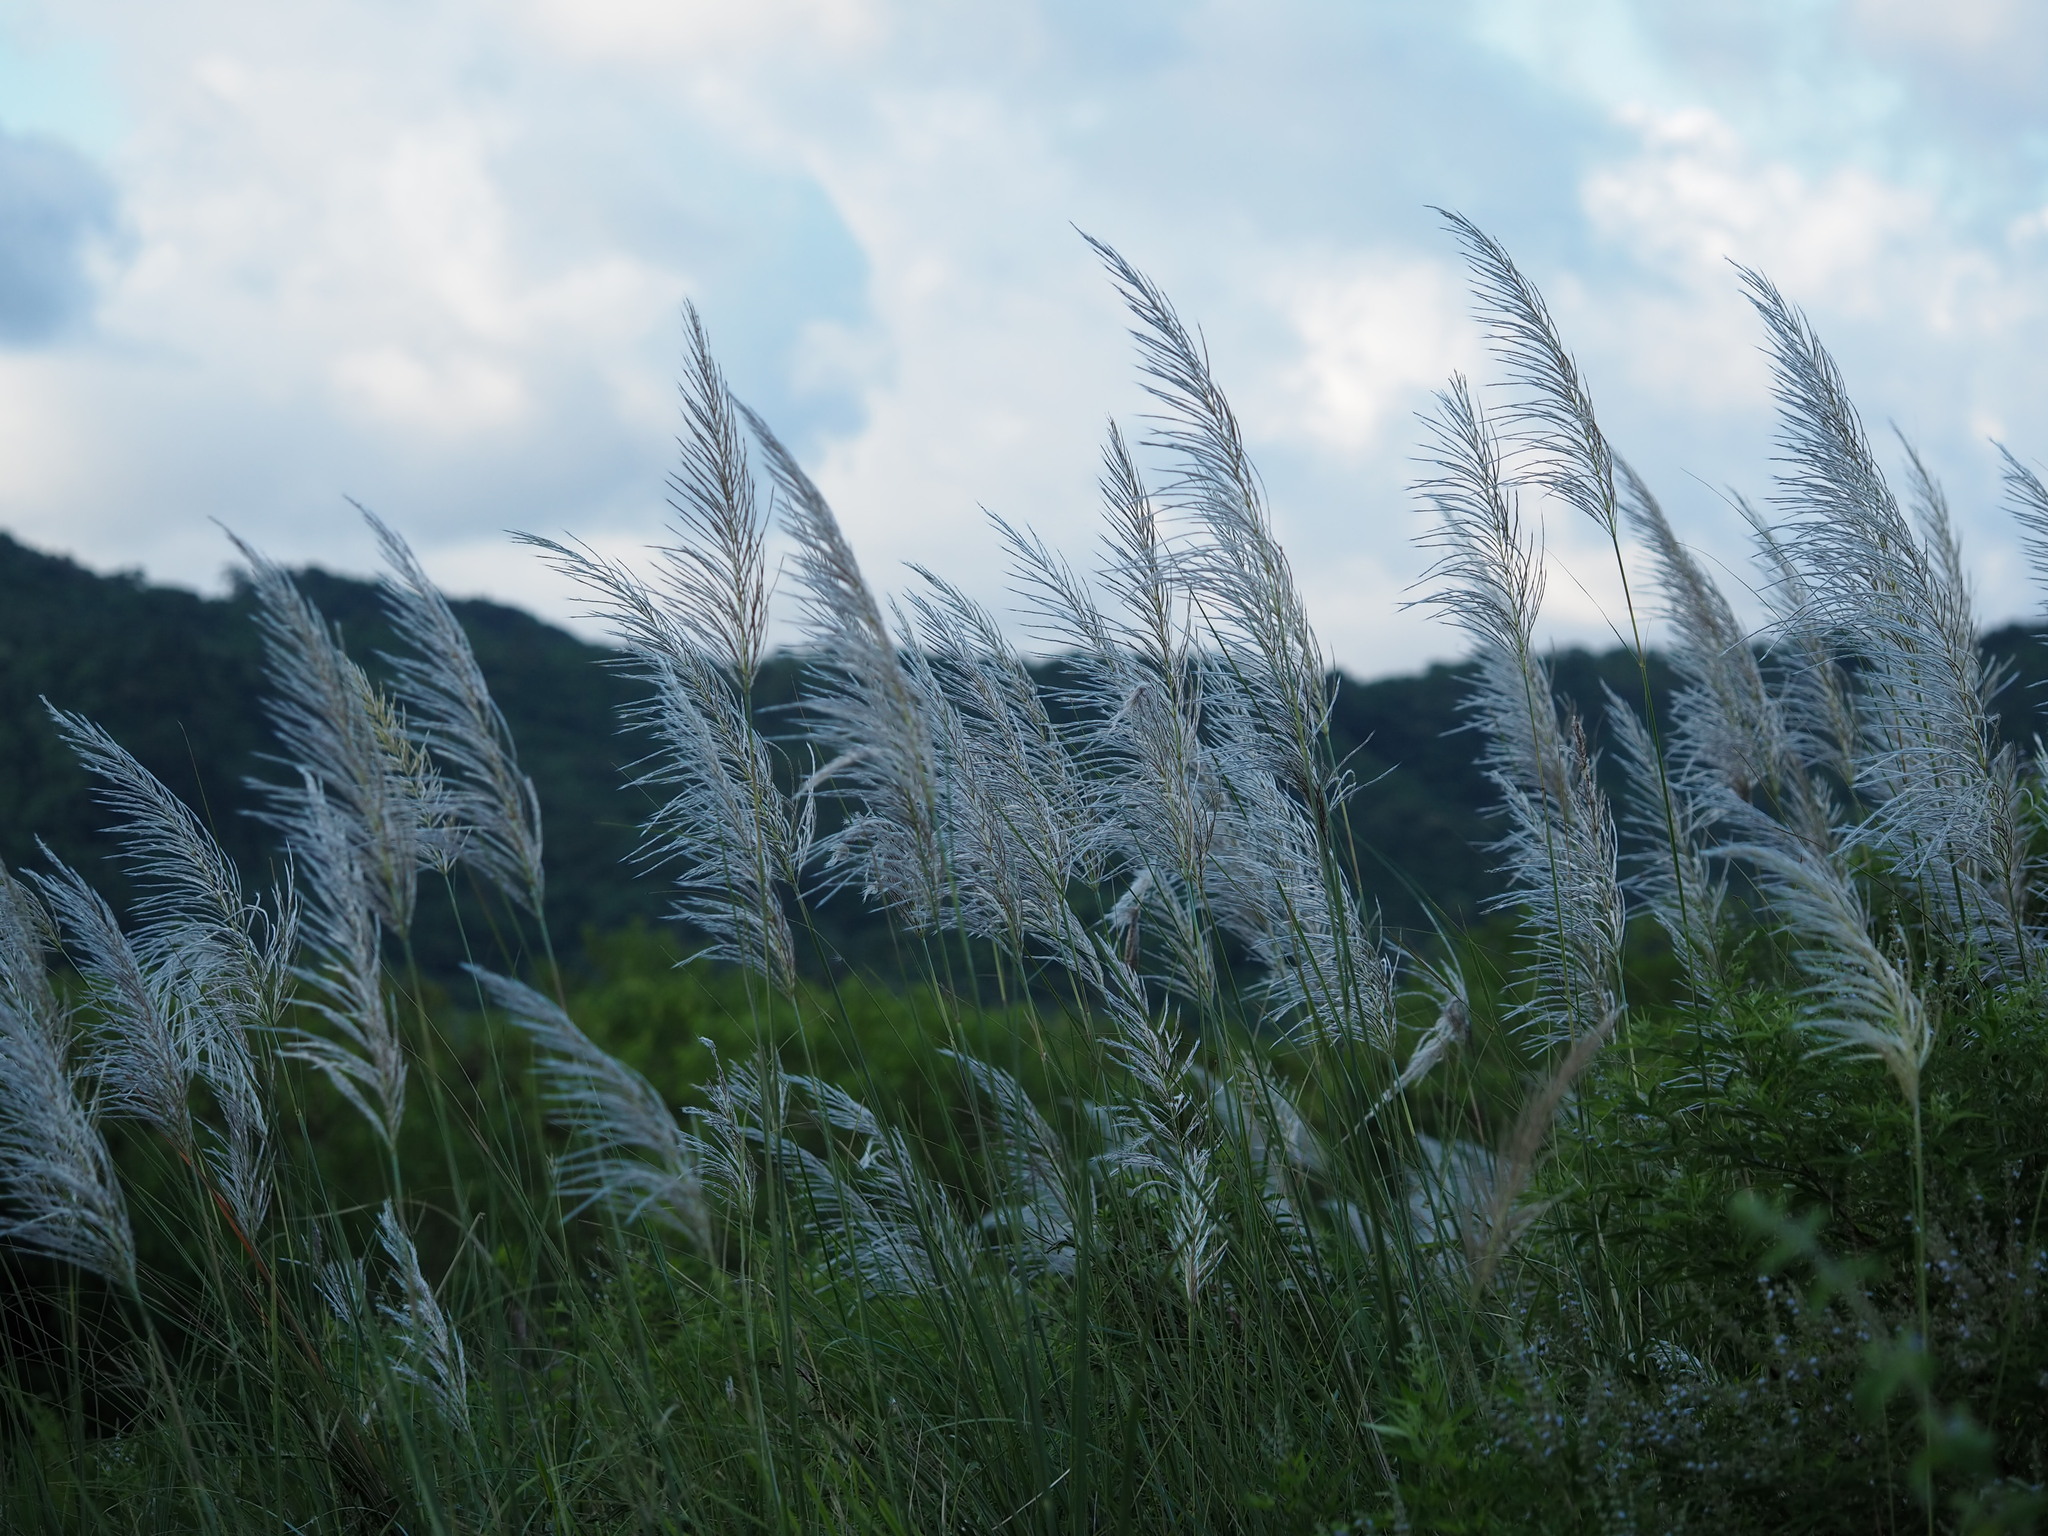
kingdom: Plantae
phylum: Tracheophyta
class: Liliopsida
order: Poales
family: Poaceae
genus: Saccharum
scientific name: Saccharum spontaneum
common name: Wild sugarcane
